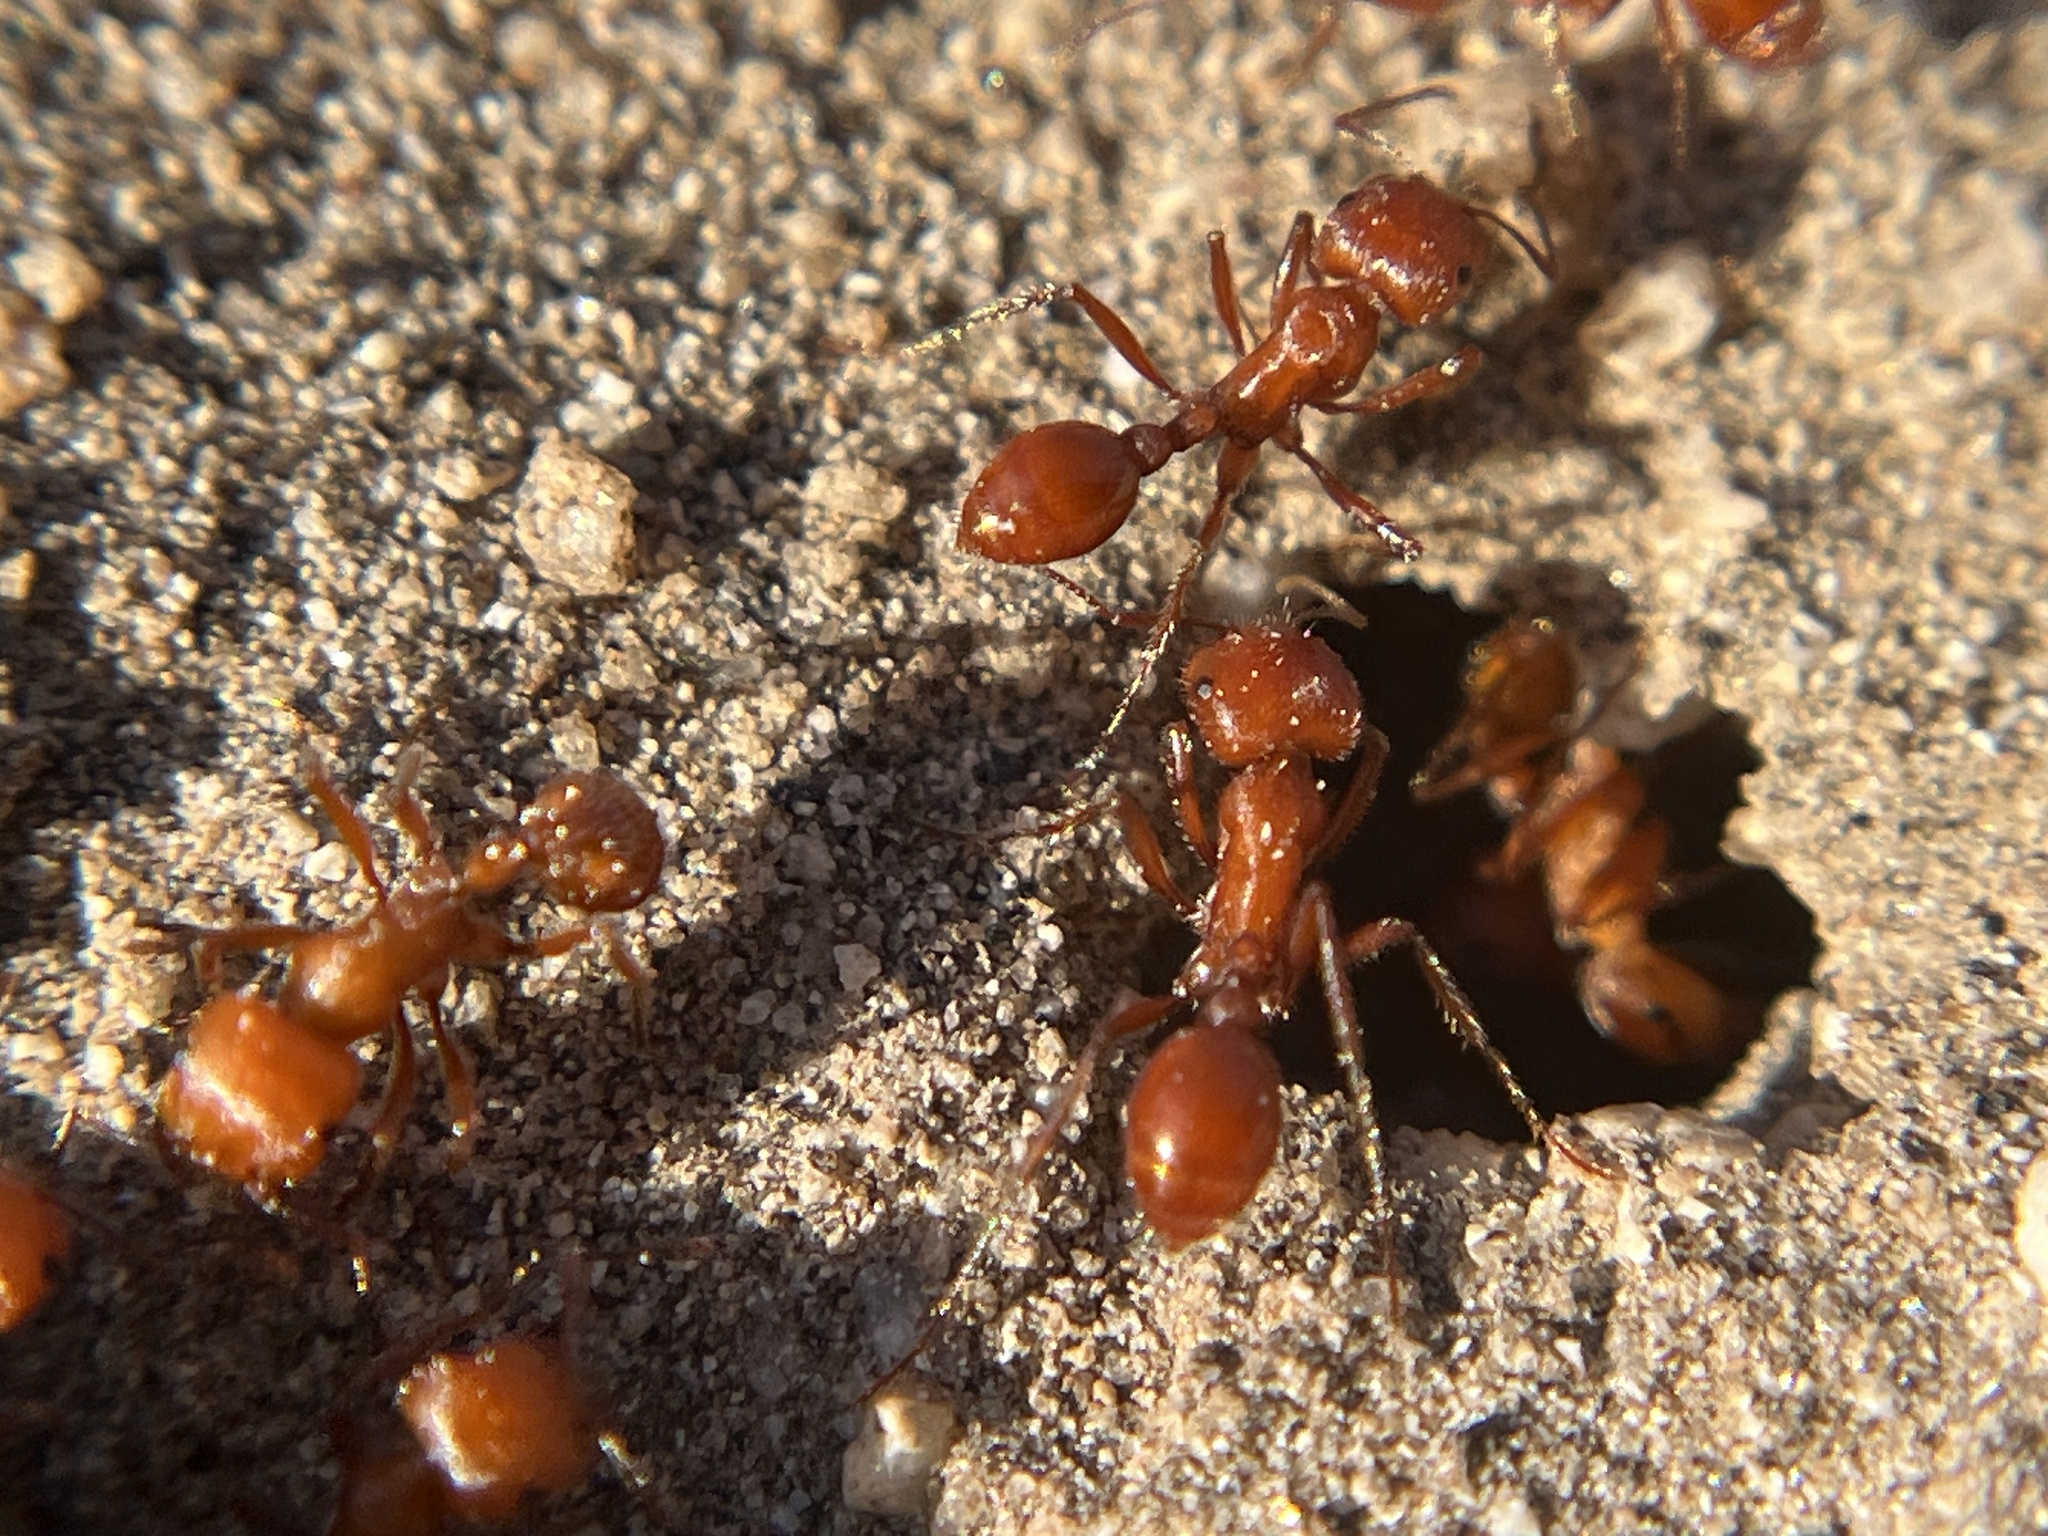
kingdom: Animalia
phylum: Arthropoda
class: Insecta
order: Hymenoptera
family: Formicidae
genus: Pogonomyrmex
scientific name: Pogonomyrmex maricopa
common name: Maricopa harvester ant
